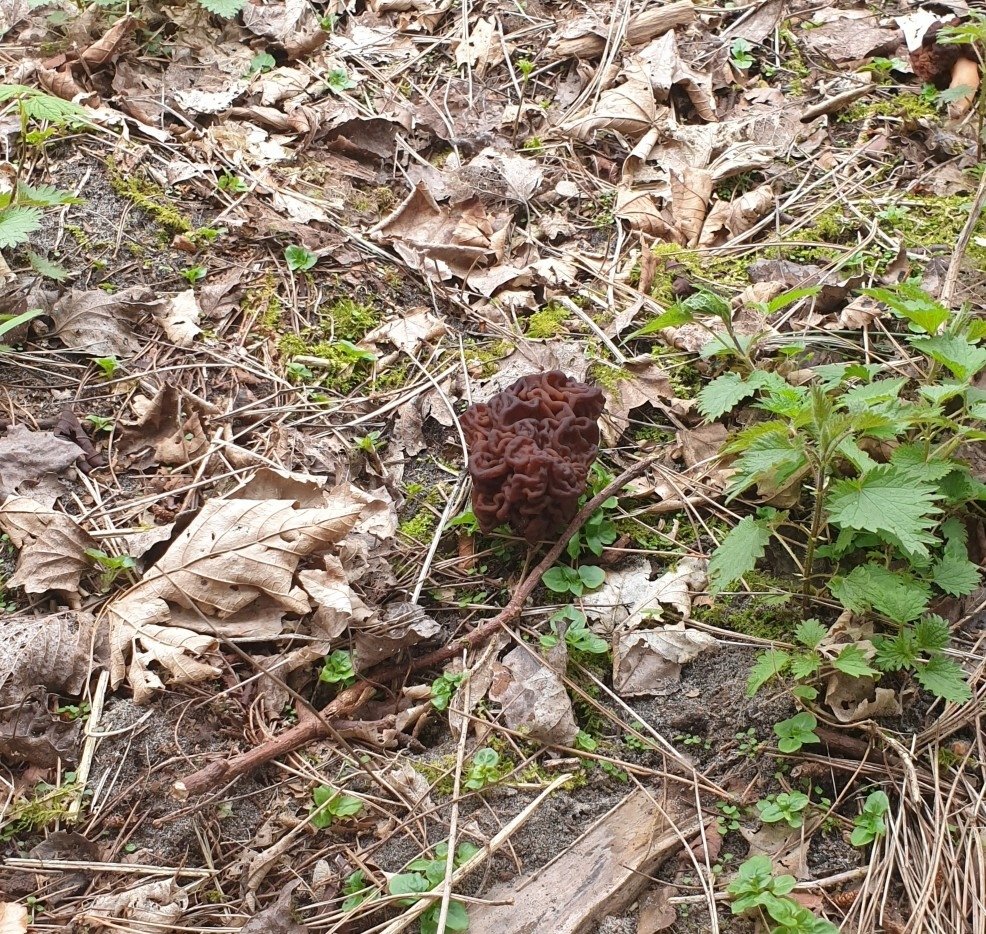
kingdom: Fungi
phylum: Ascomycota
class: Pezizomycetes
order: Pezizales
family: Discinaceae
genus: Gyromitra
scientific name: Gyromitra esculenta
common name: False morel
